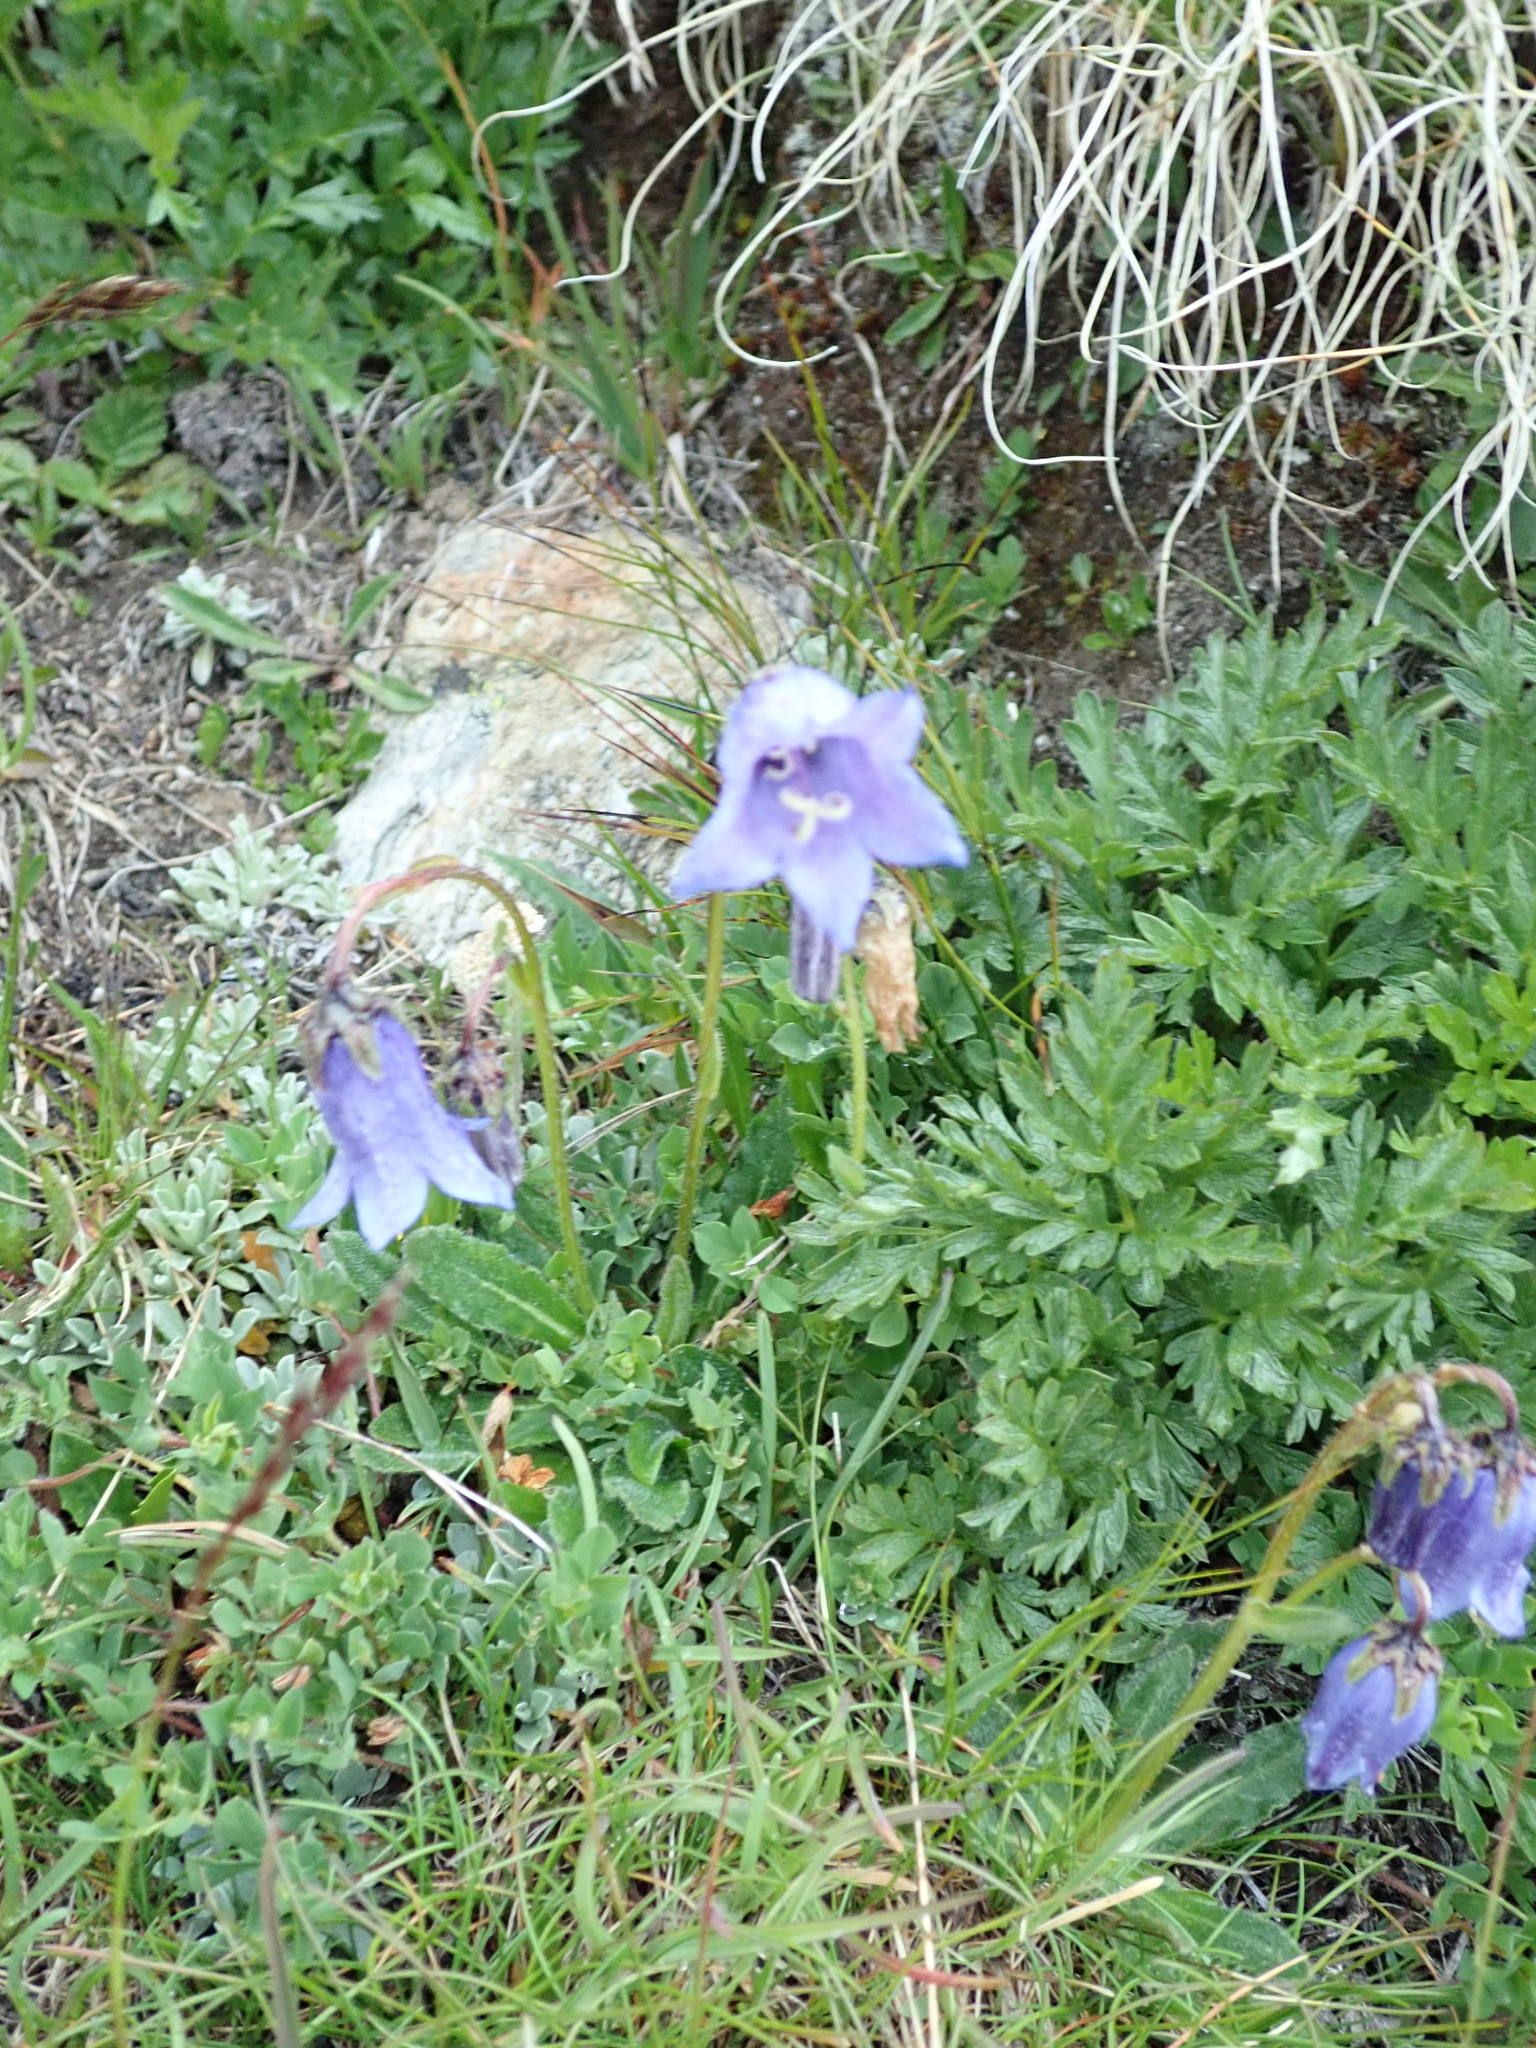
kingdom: Plantae
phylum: Tracheophyta
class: Magnoliopsida
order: Asterales
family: Campanulaceae
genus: Campanula
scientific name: Campanula barbata
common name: Bearded bellflower
